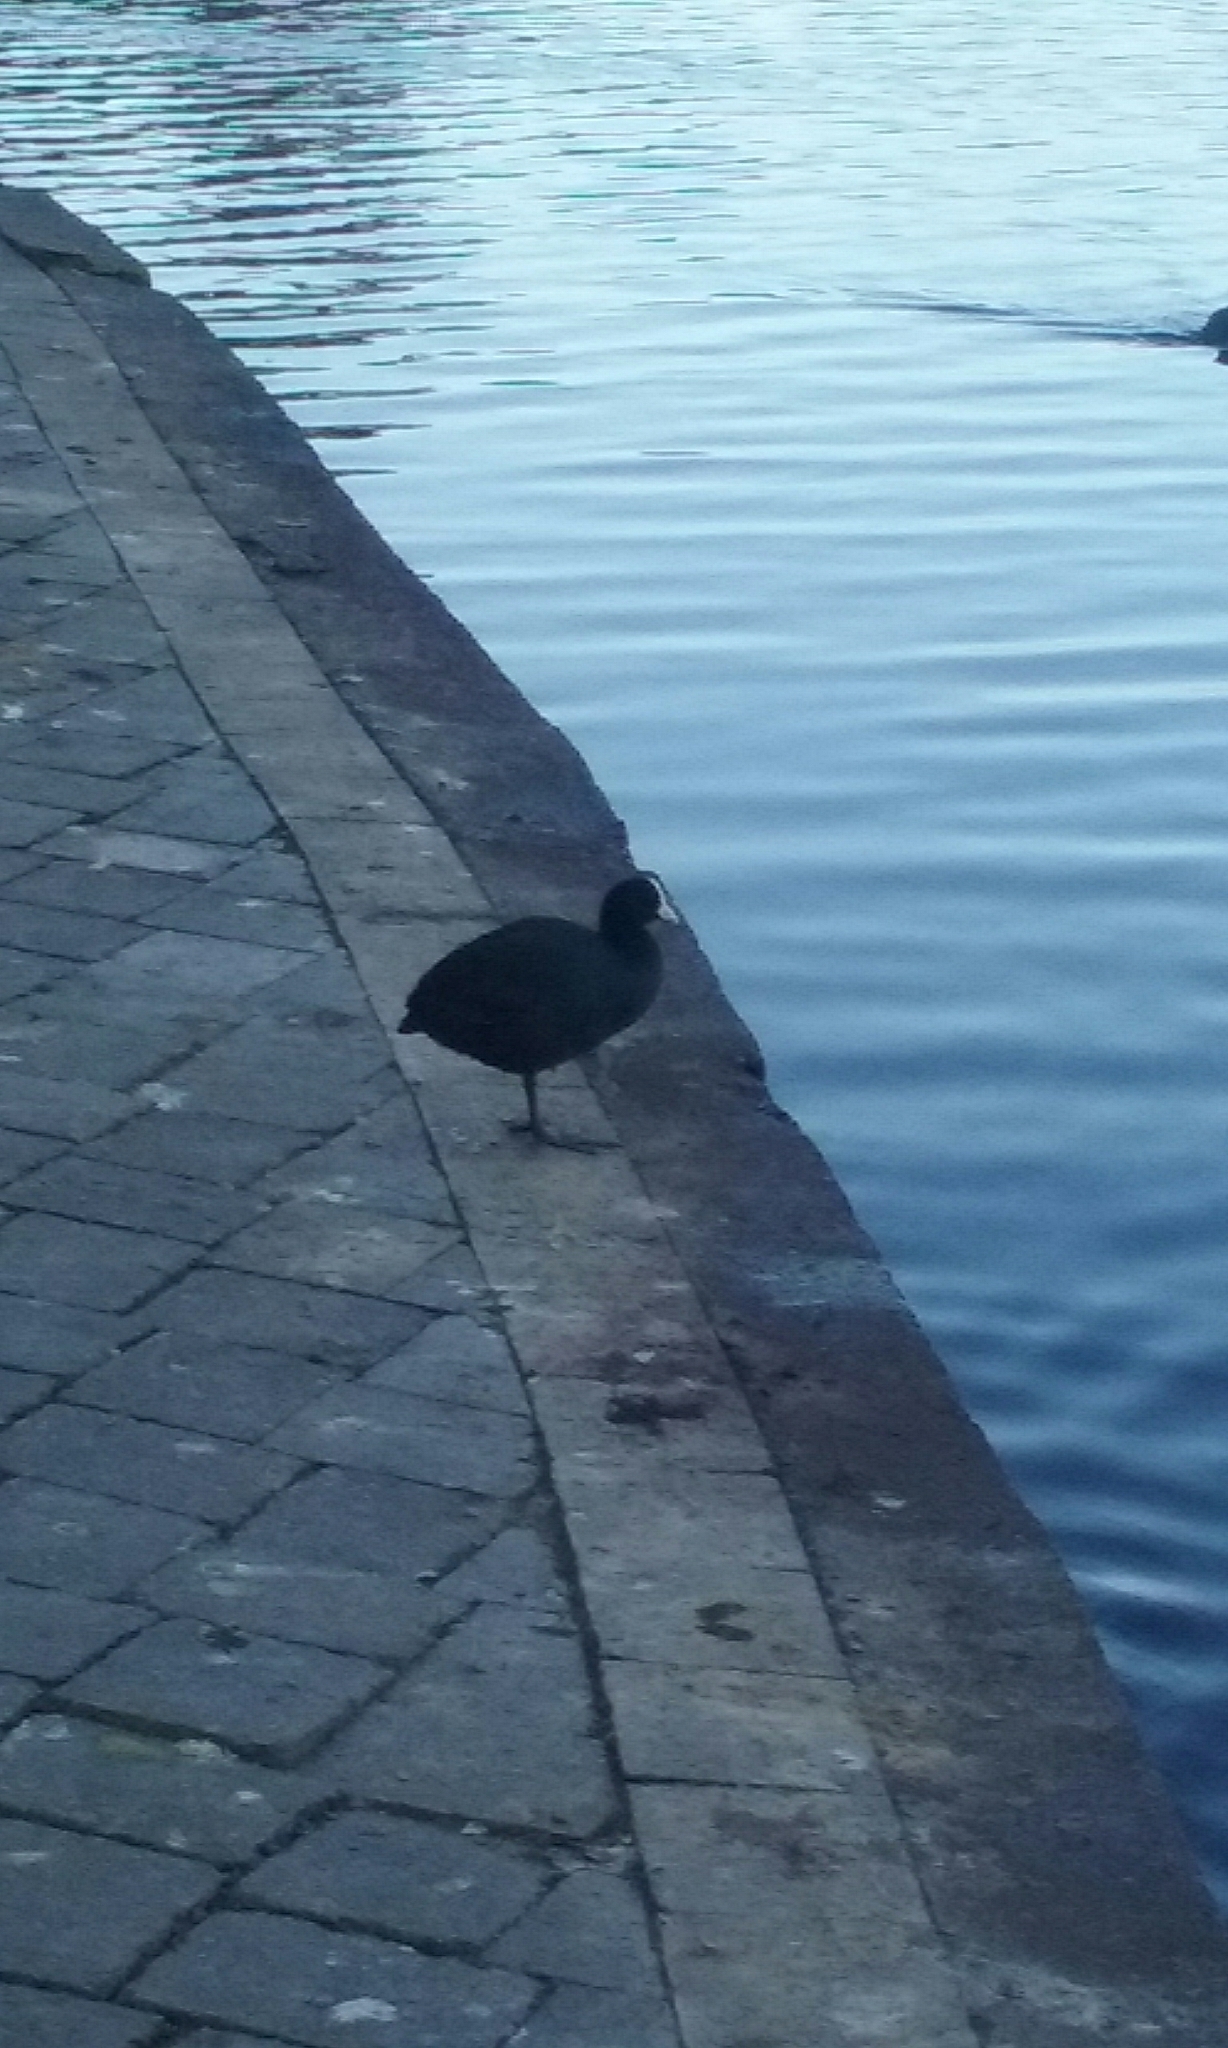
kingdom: Animalia
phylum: Chordata
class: Aves
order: Gruiformes
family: Rallidae
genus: Fulica
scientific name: Fulica atra
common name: Eurasian coot
